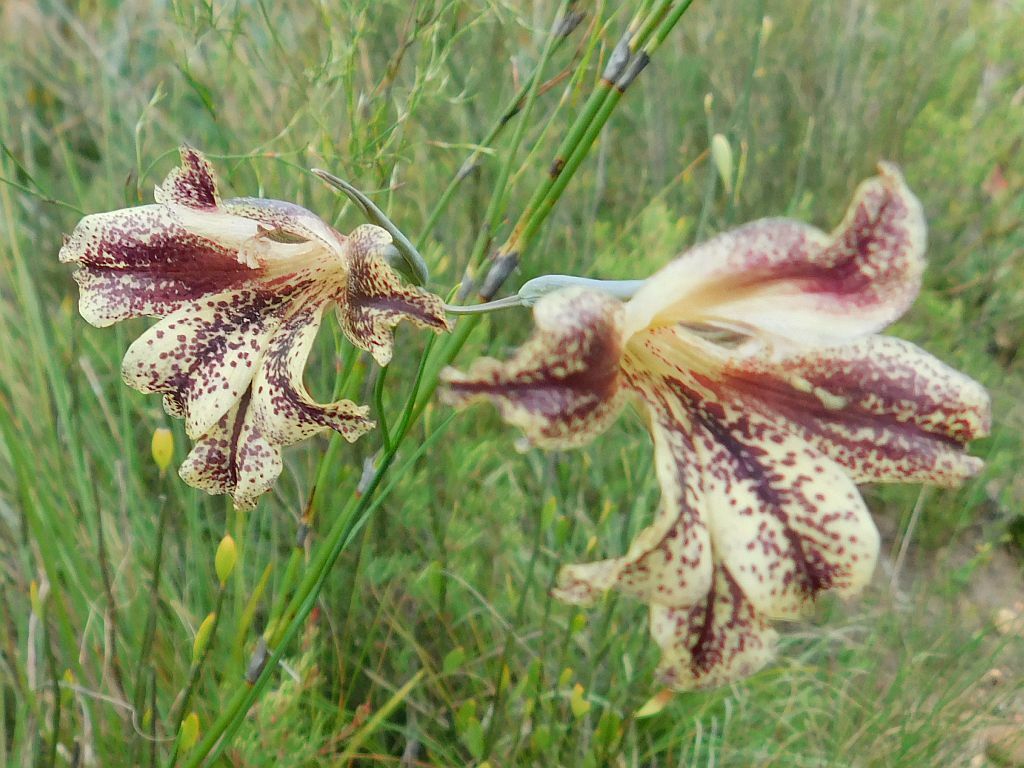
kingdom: Plantae
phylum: Tracheophyta
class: Liliopsida
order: Asparagales
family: Iridaceae
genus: Gladiolus
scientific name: Gladiolus maculatus
